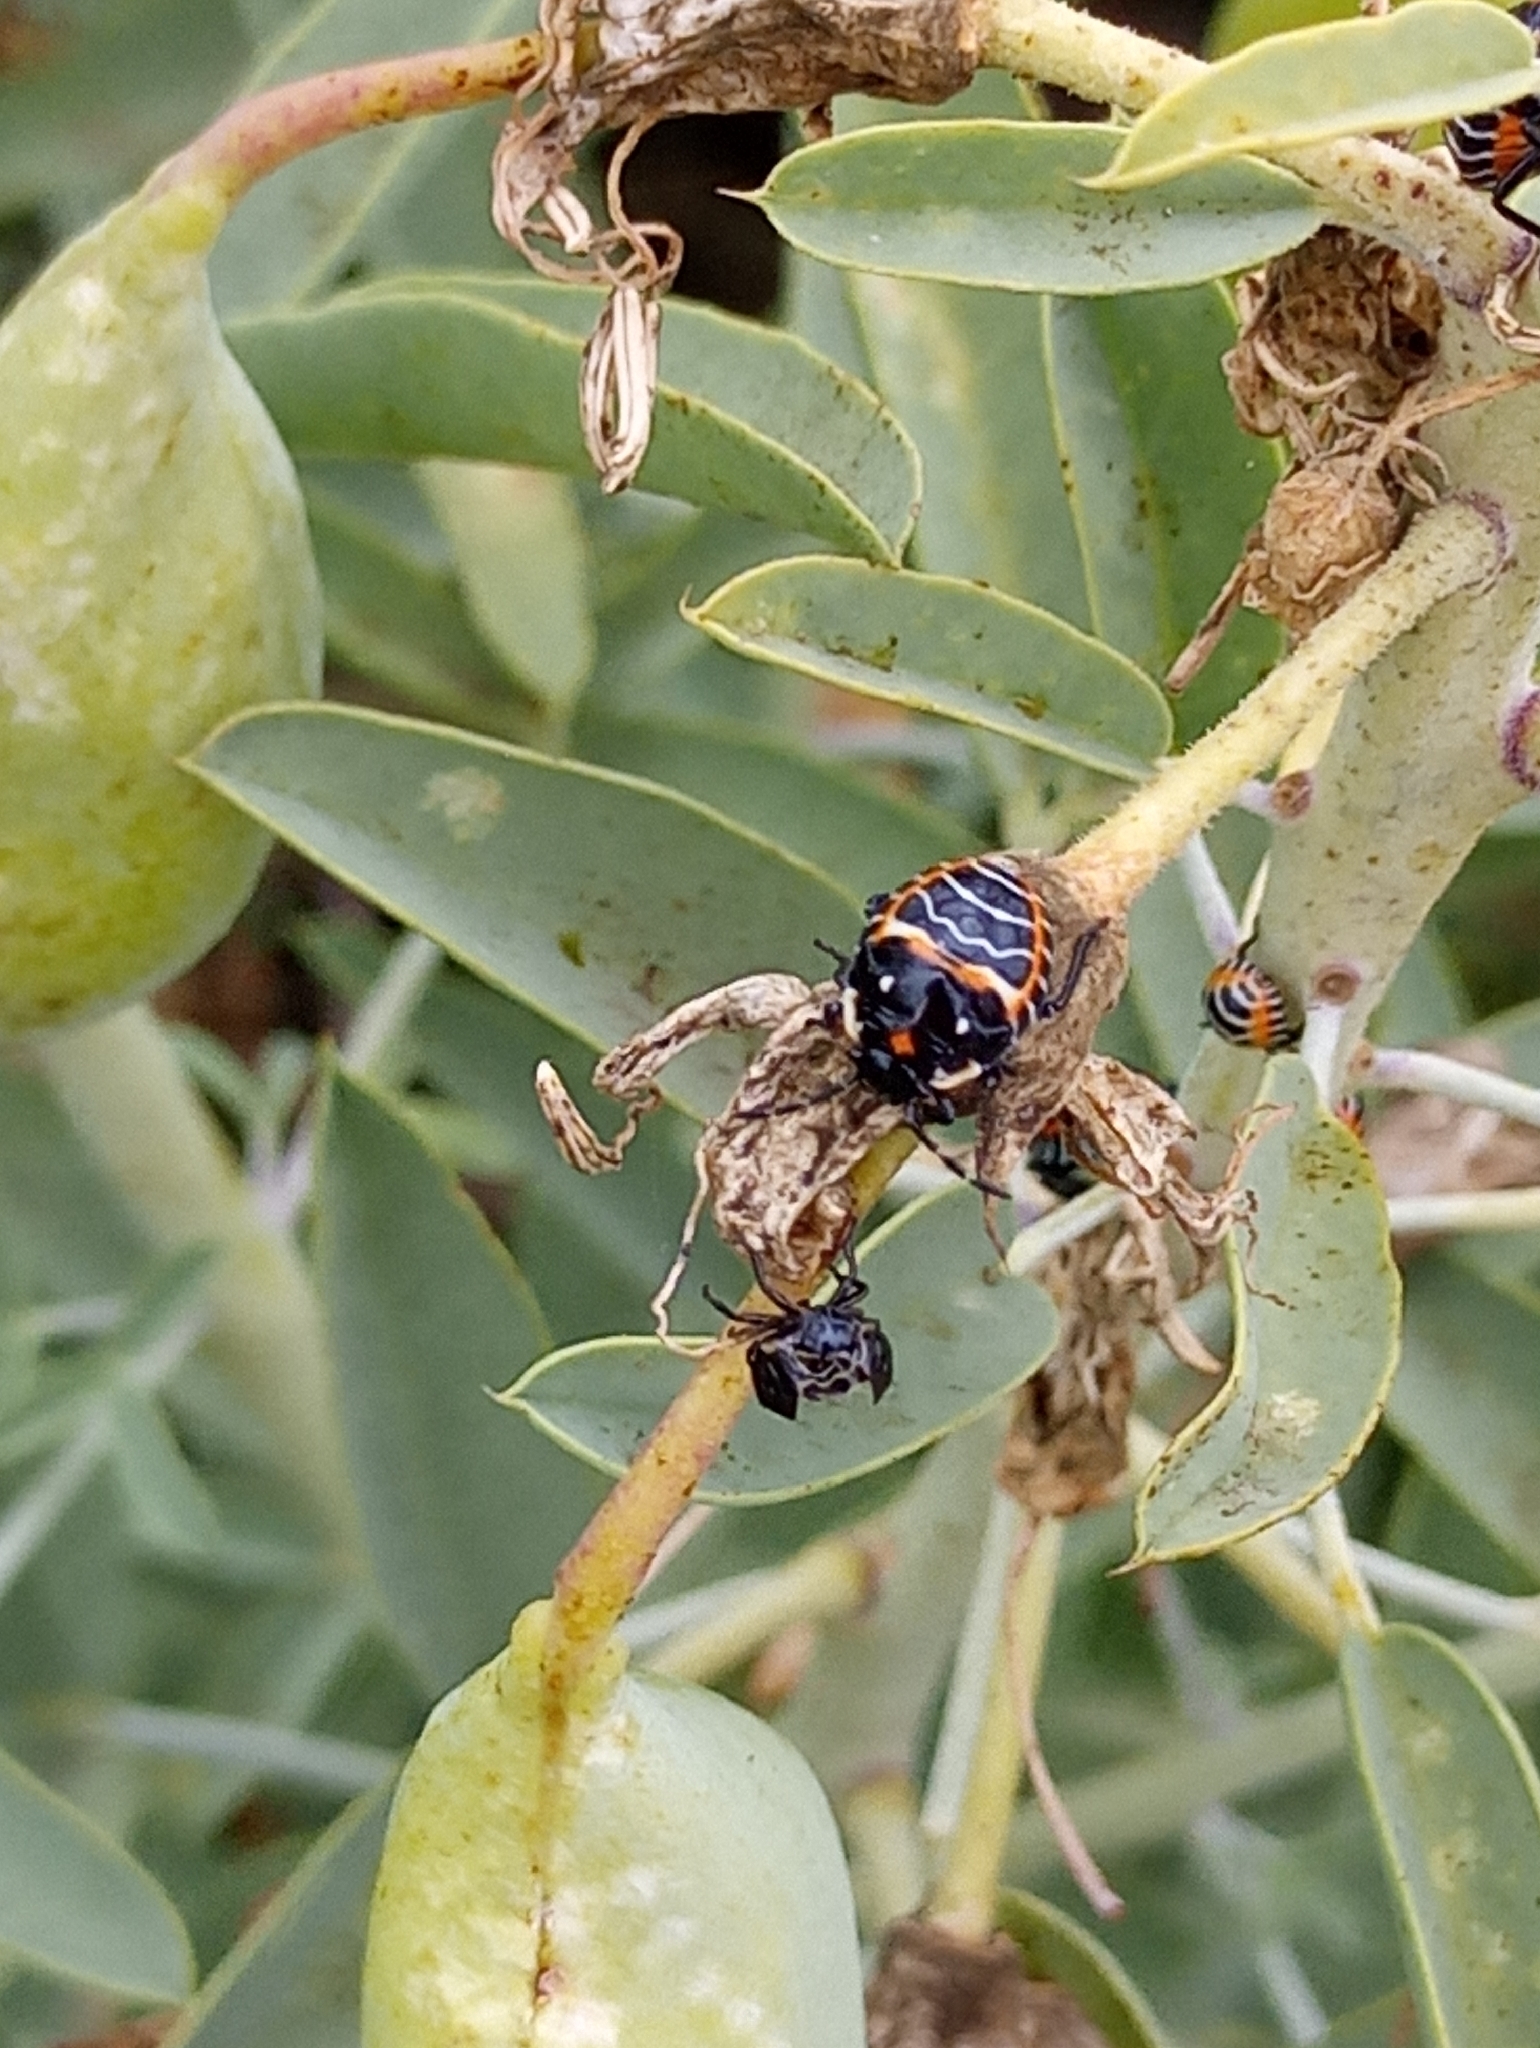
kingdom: Animalia
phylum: Arthropoda
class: Insecta
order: Hemiptera
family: Pentatomidae
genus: Murgantia
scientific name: Murgantia histrionica
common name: Harlequin bug
